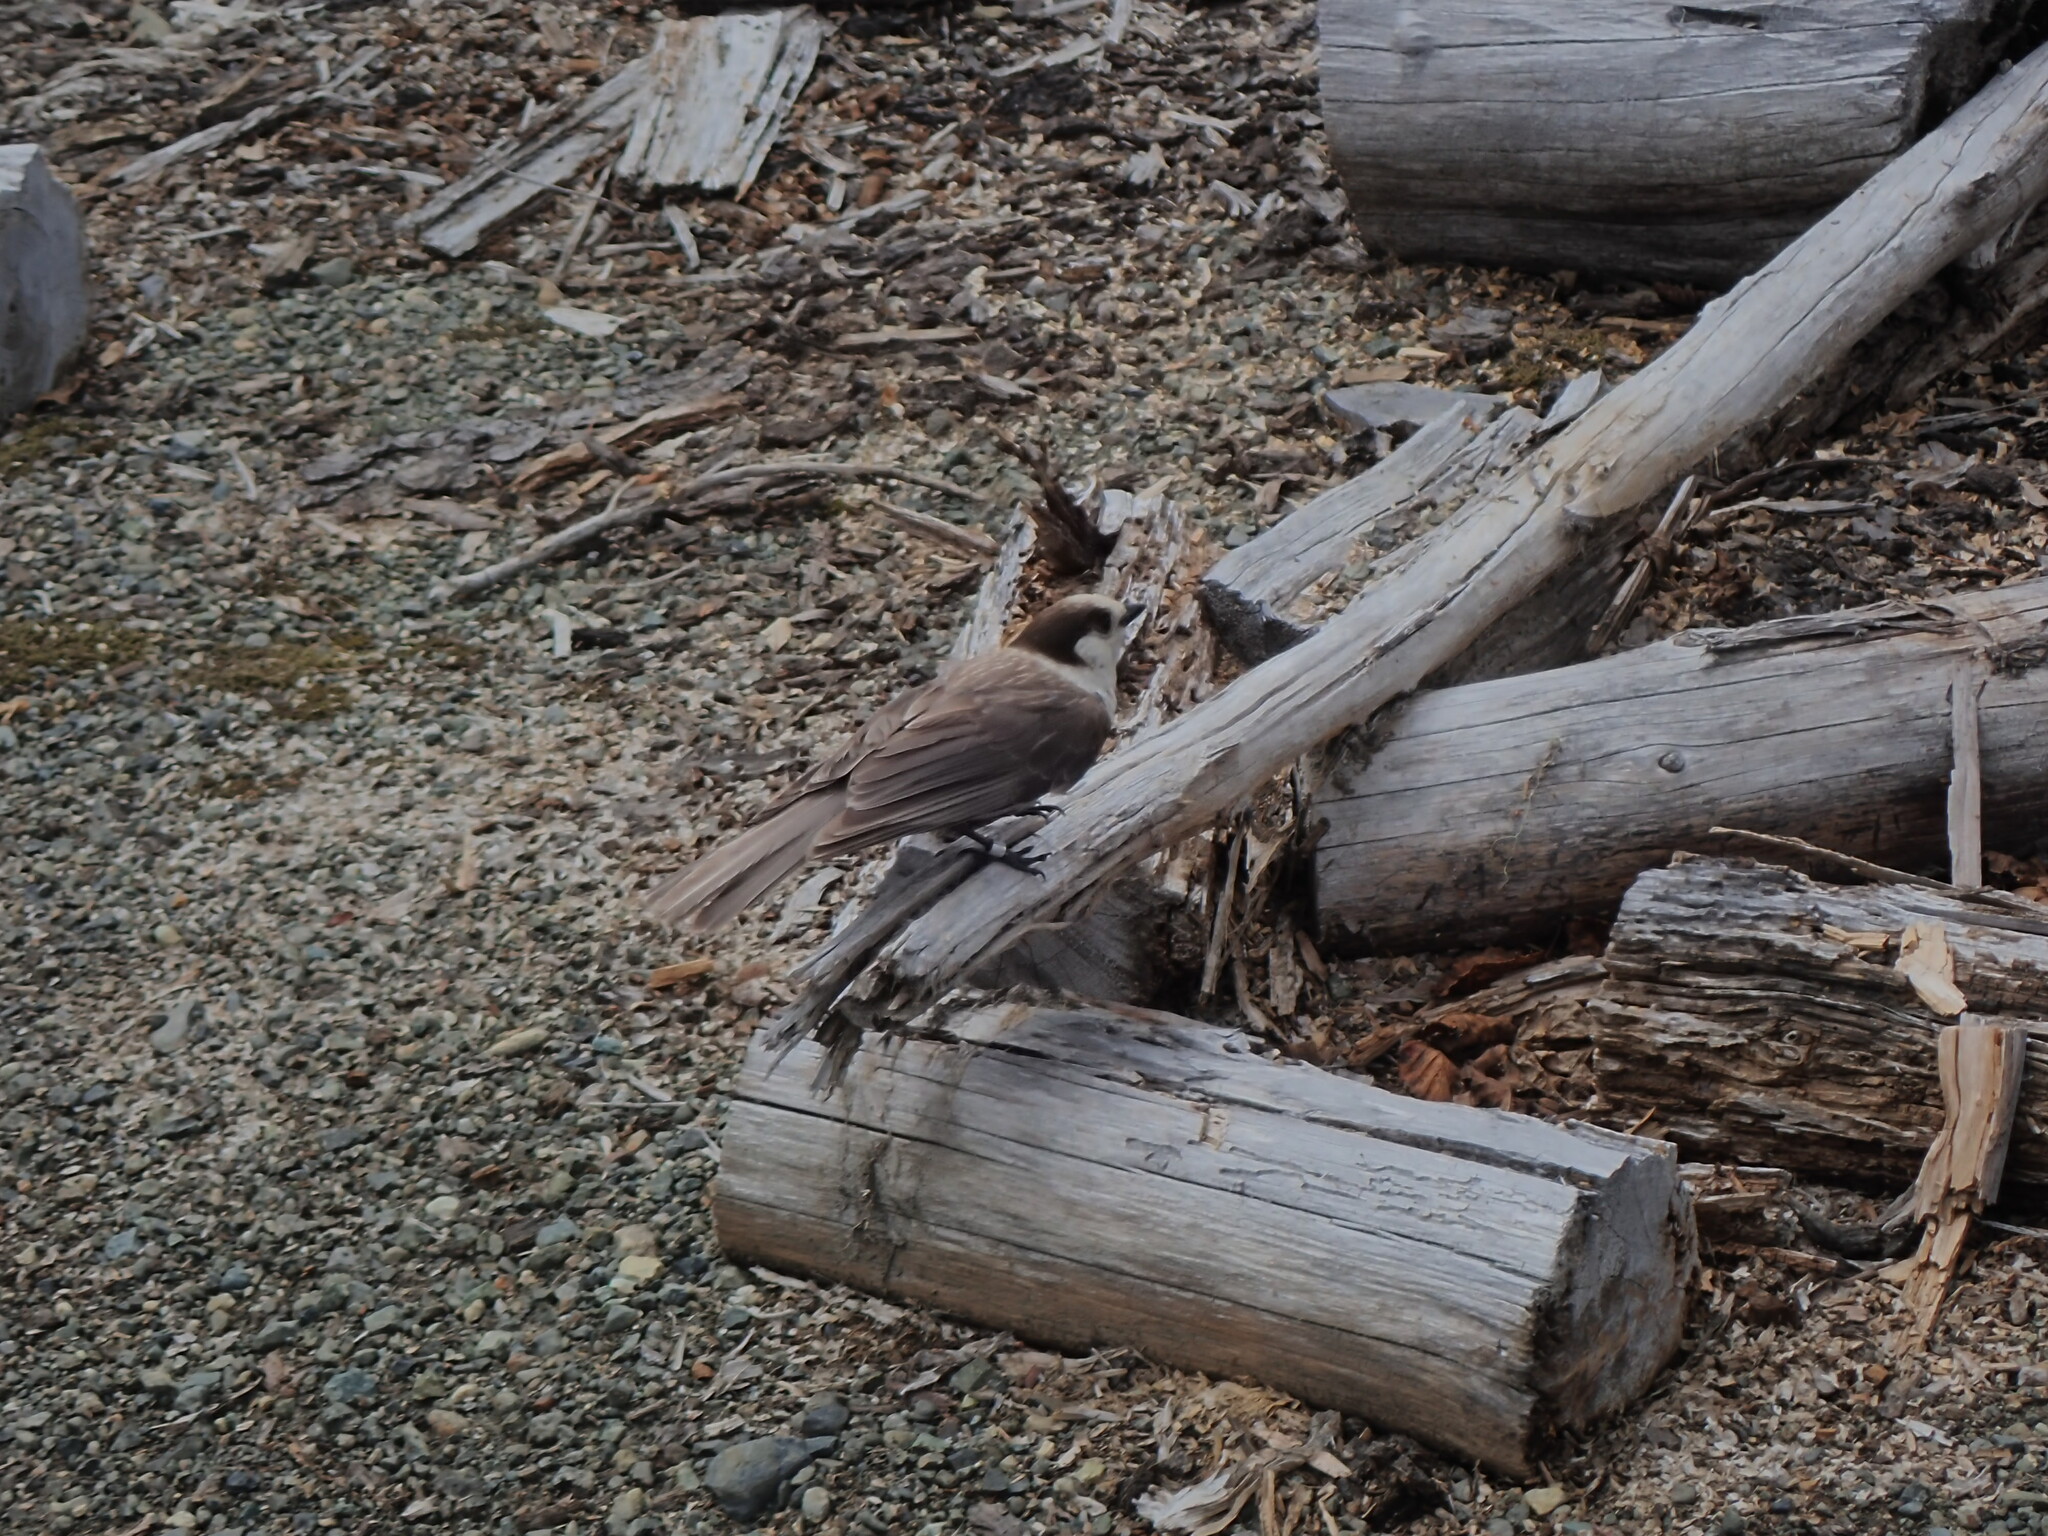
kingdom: Animalia
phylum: Chordata
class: Aves
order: Passeriformes
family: Corvidae
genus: Perisoreus
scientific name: Perisoreus canadensis
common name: Gray jay
